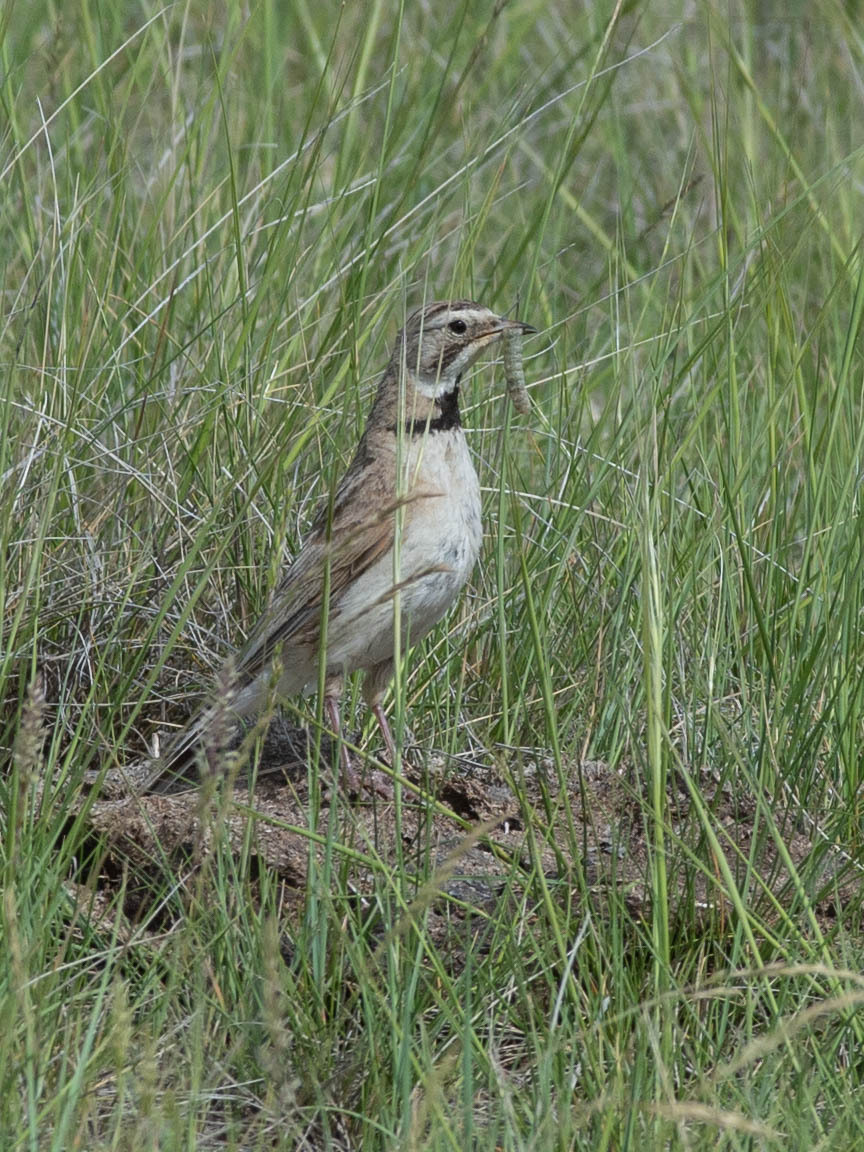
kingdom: Animalia
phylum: Chordata
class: Aves
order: Passeriformes
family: Alaudidae
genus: Eremophila
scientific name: Eremophila alpestris
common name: Horned lark
